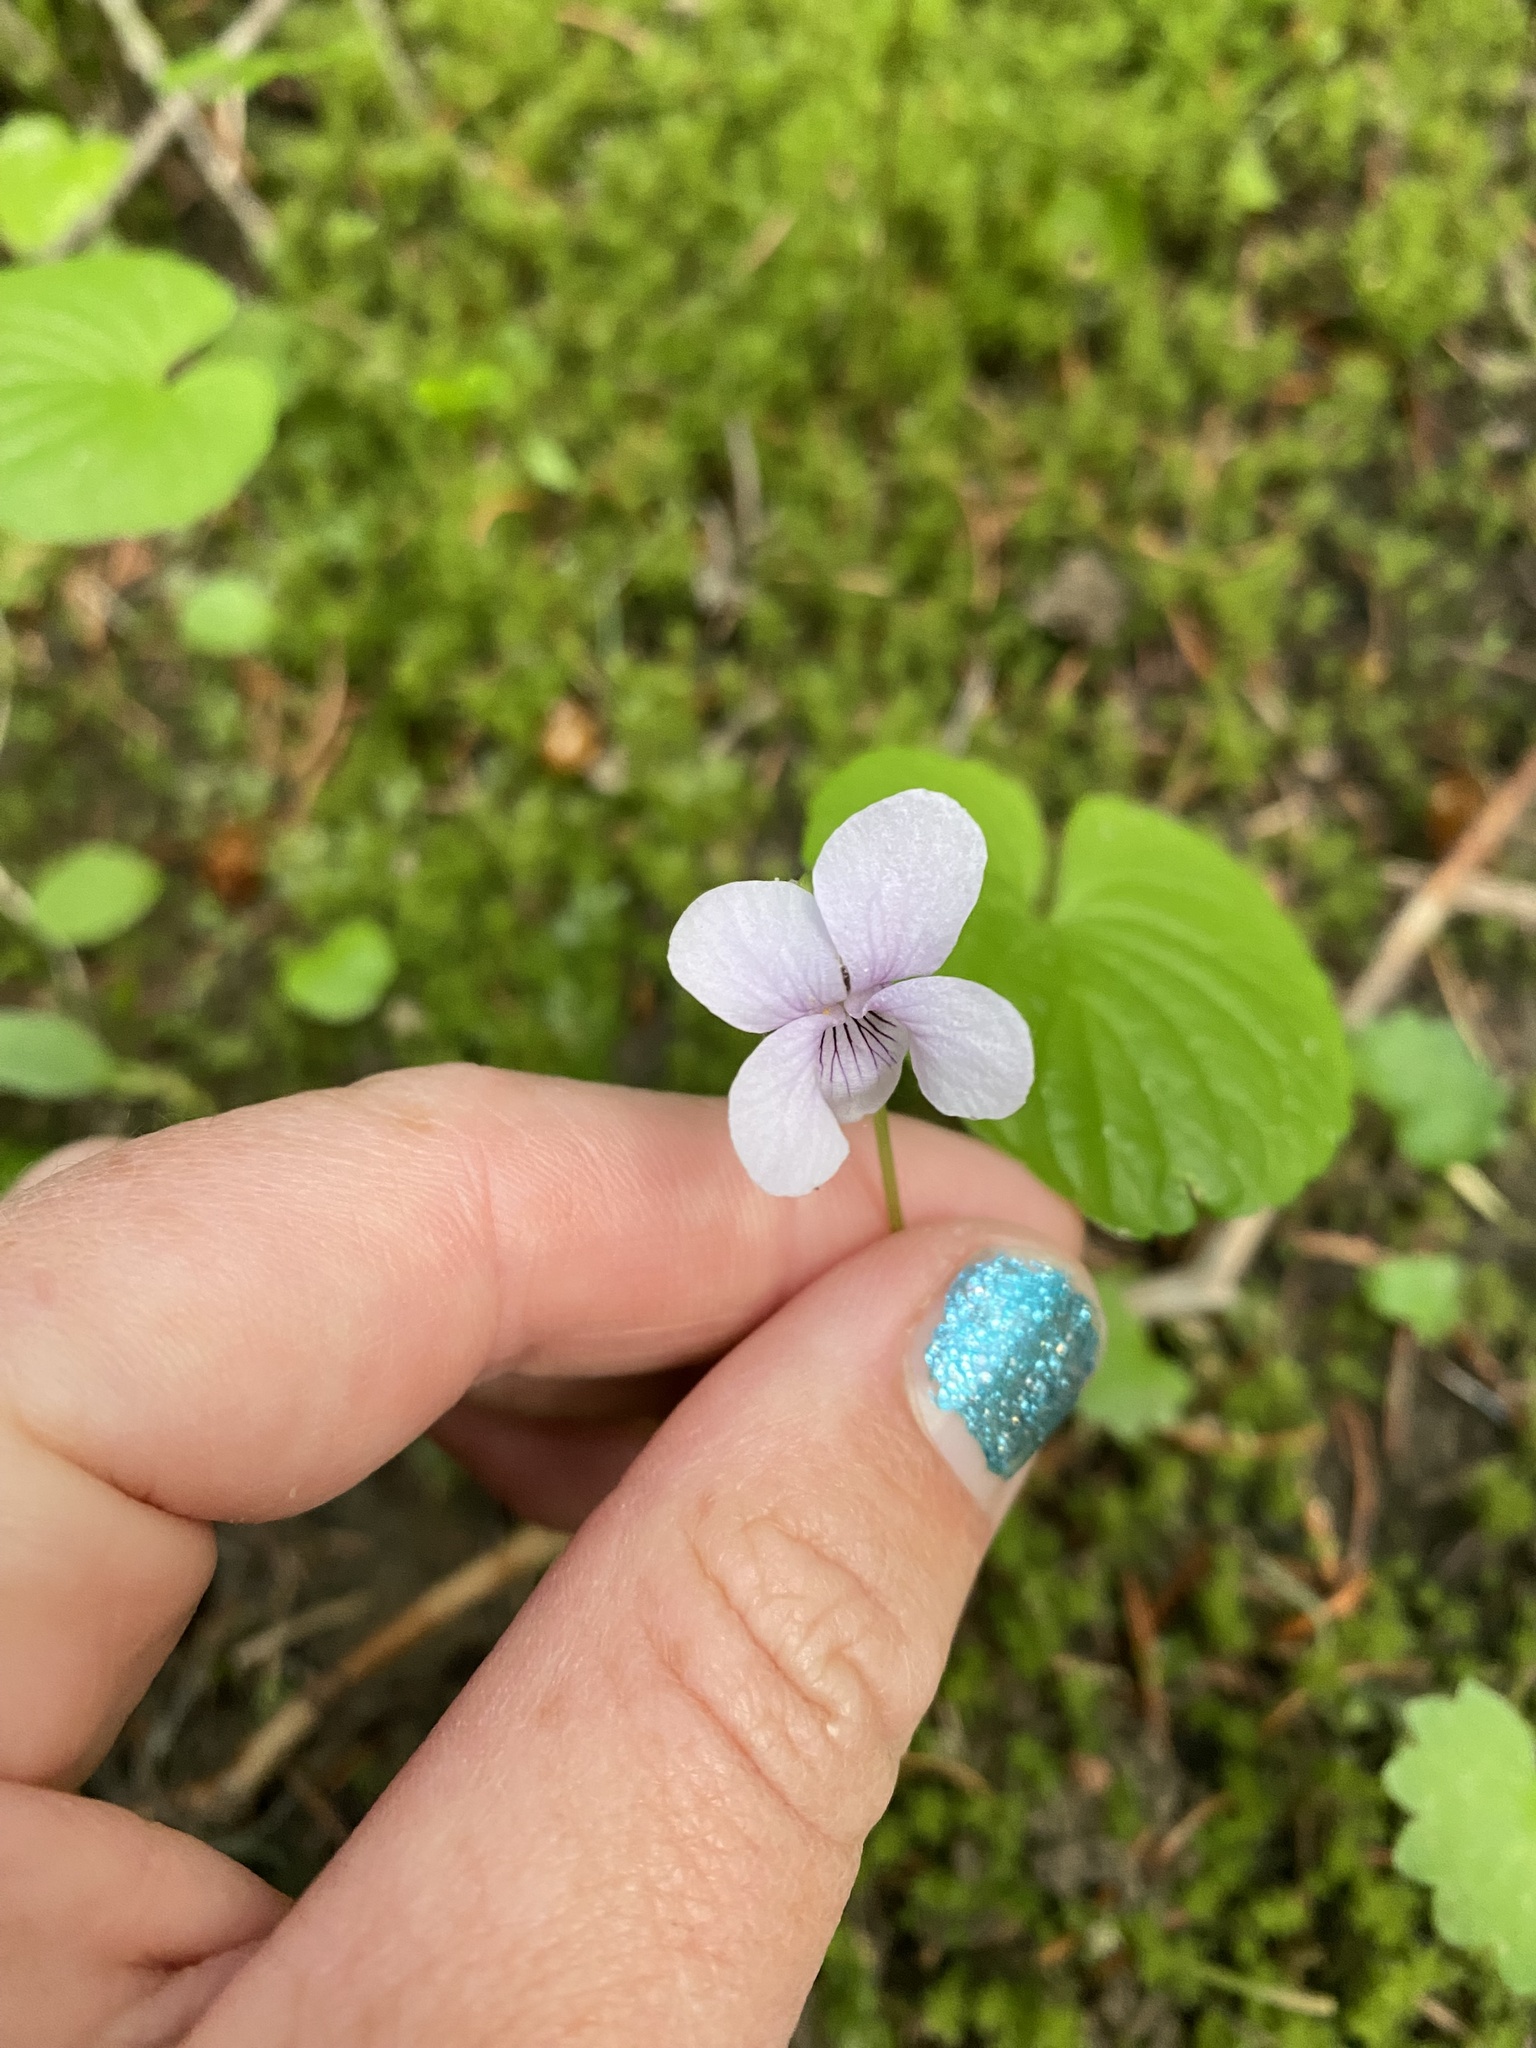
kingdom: Plantae
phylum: Tracheophyta
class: Magnoliopsida
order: Malpighiales
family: Violaceae
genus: Viola
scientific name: Viola palustris
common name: Marsh violet
